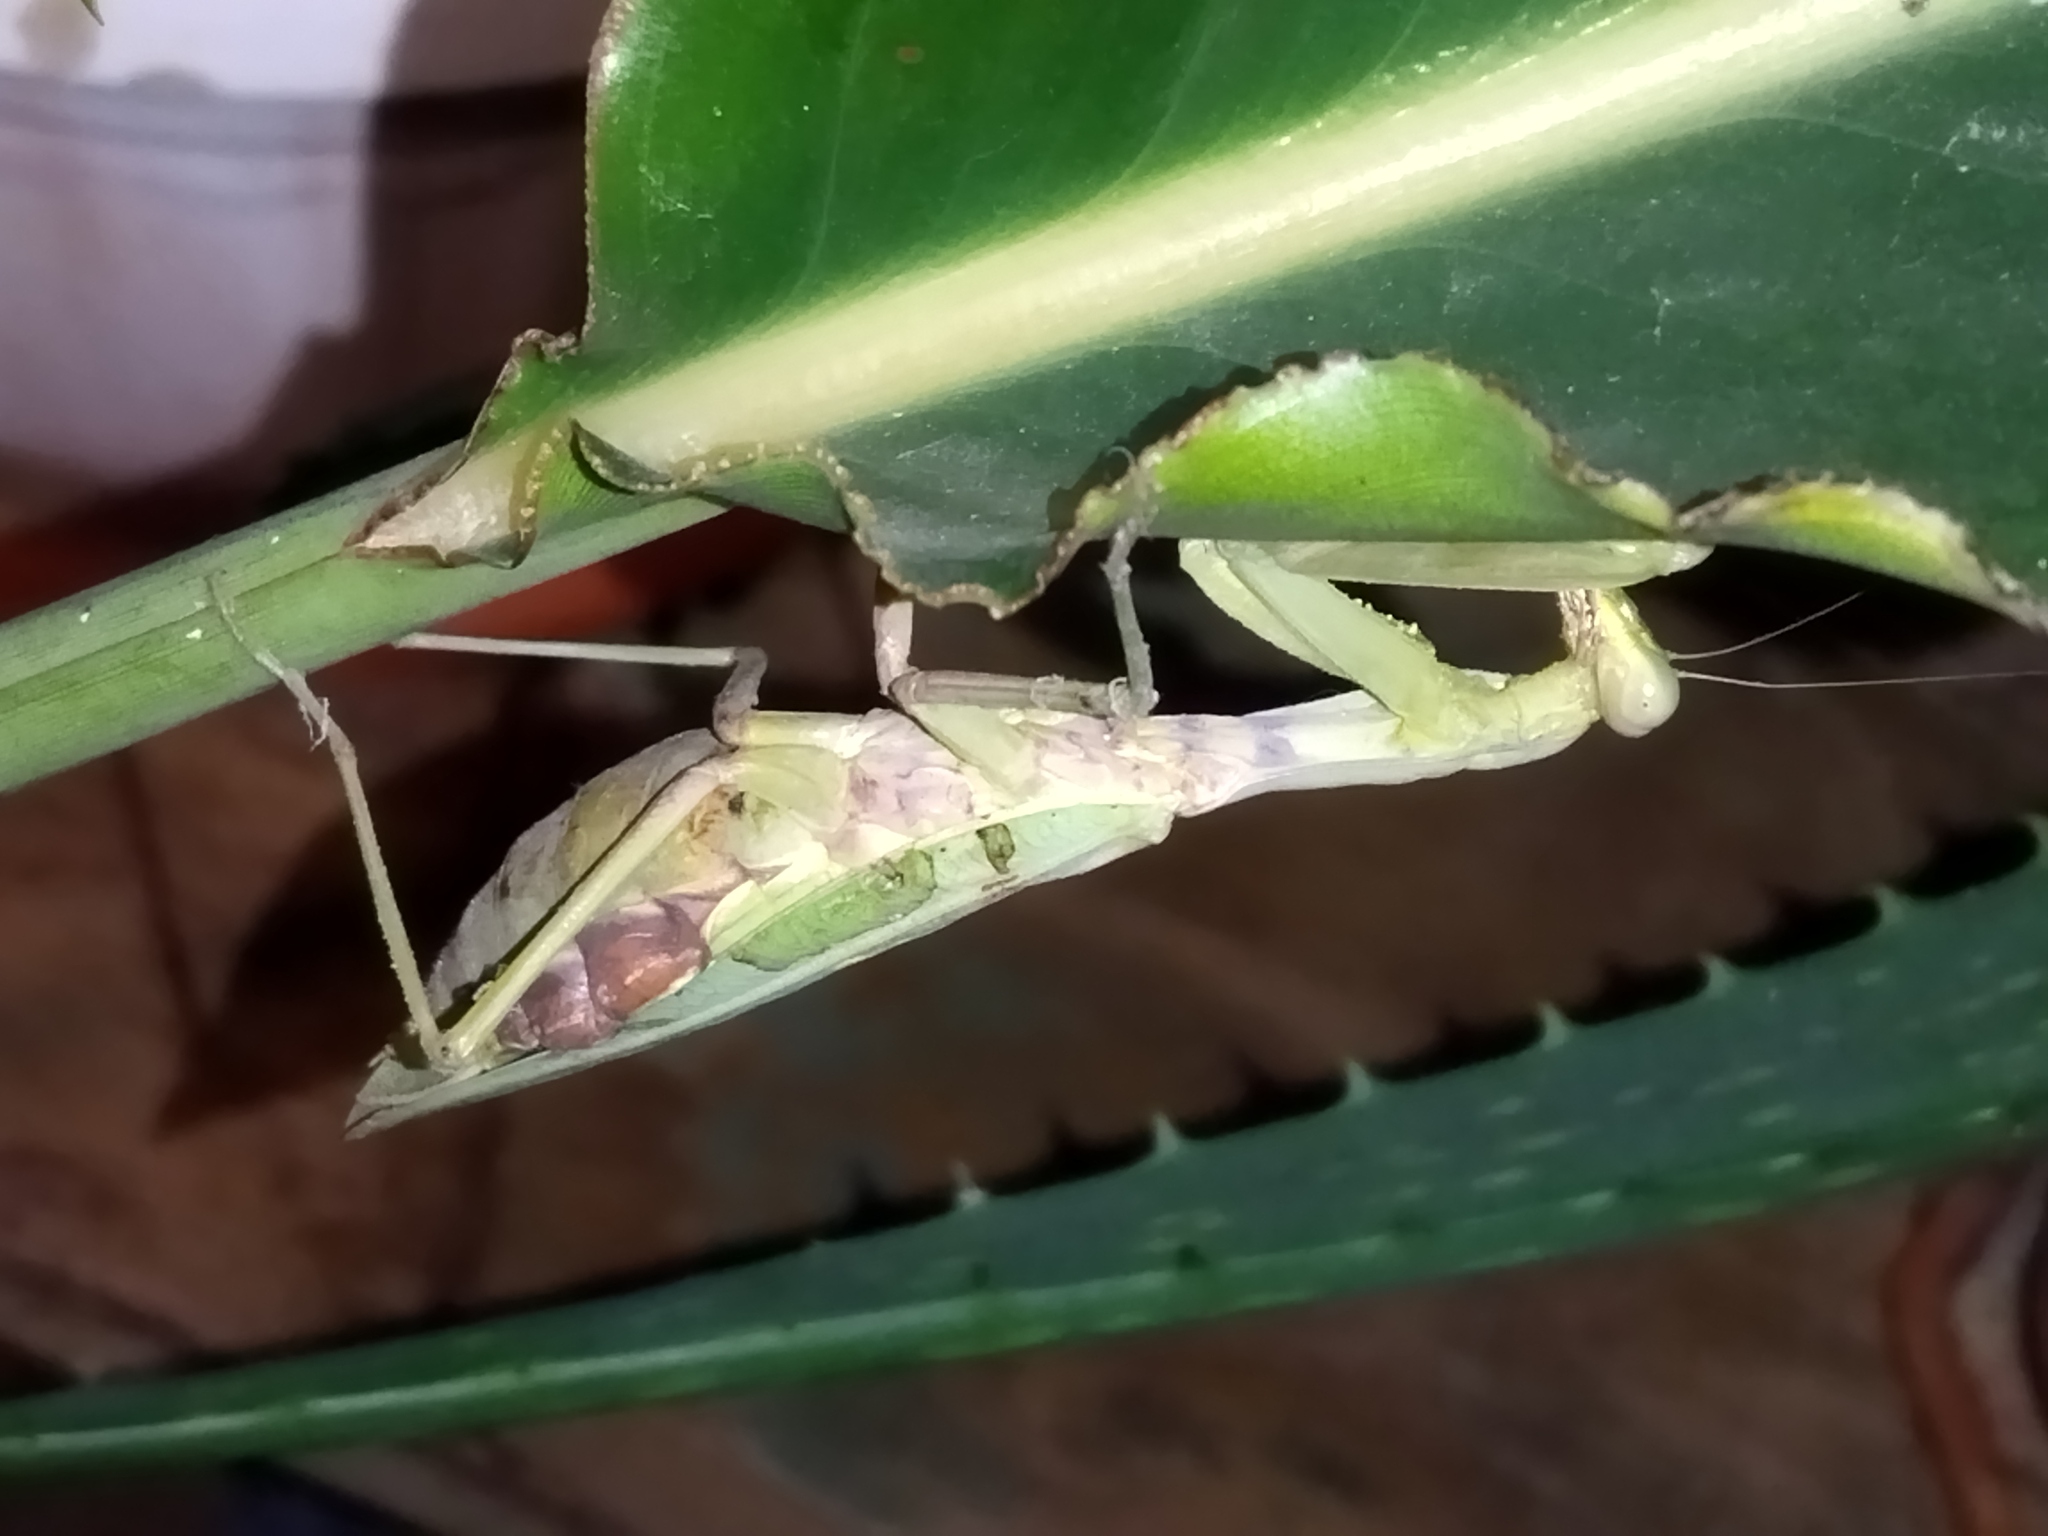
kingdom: Animalia
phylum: Arthropoda
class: Insecta
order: Mantodea
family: Mantidae
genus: Hierodula
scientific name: Hierodula transcaucasica
